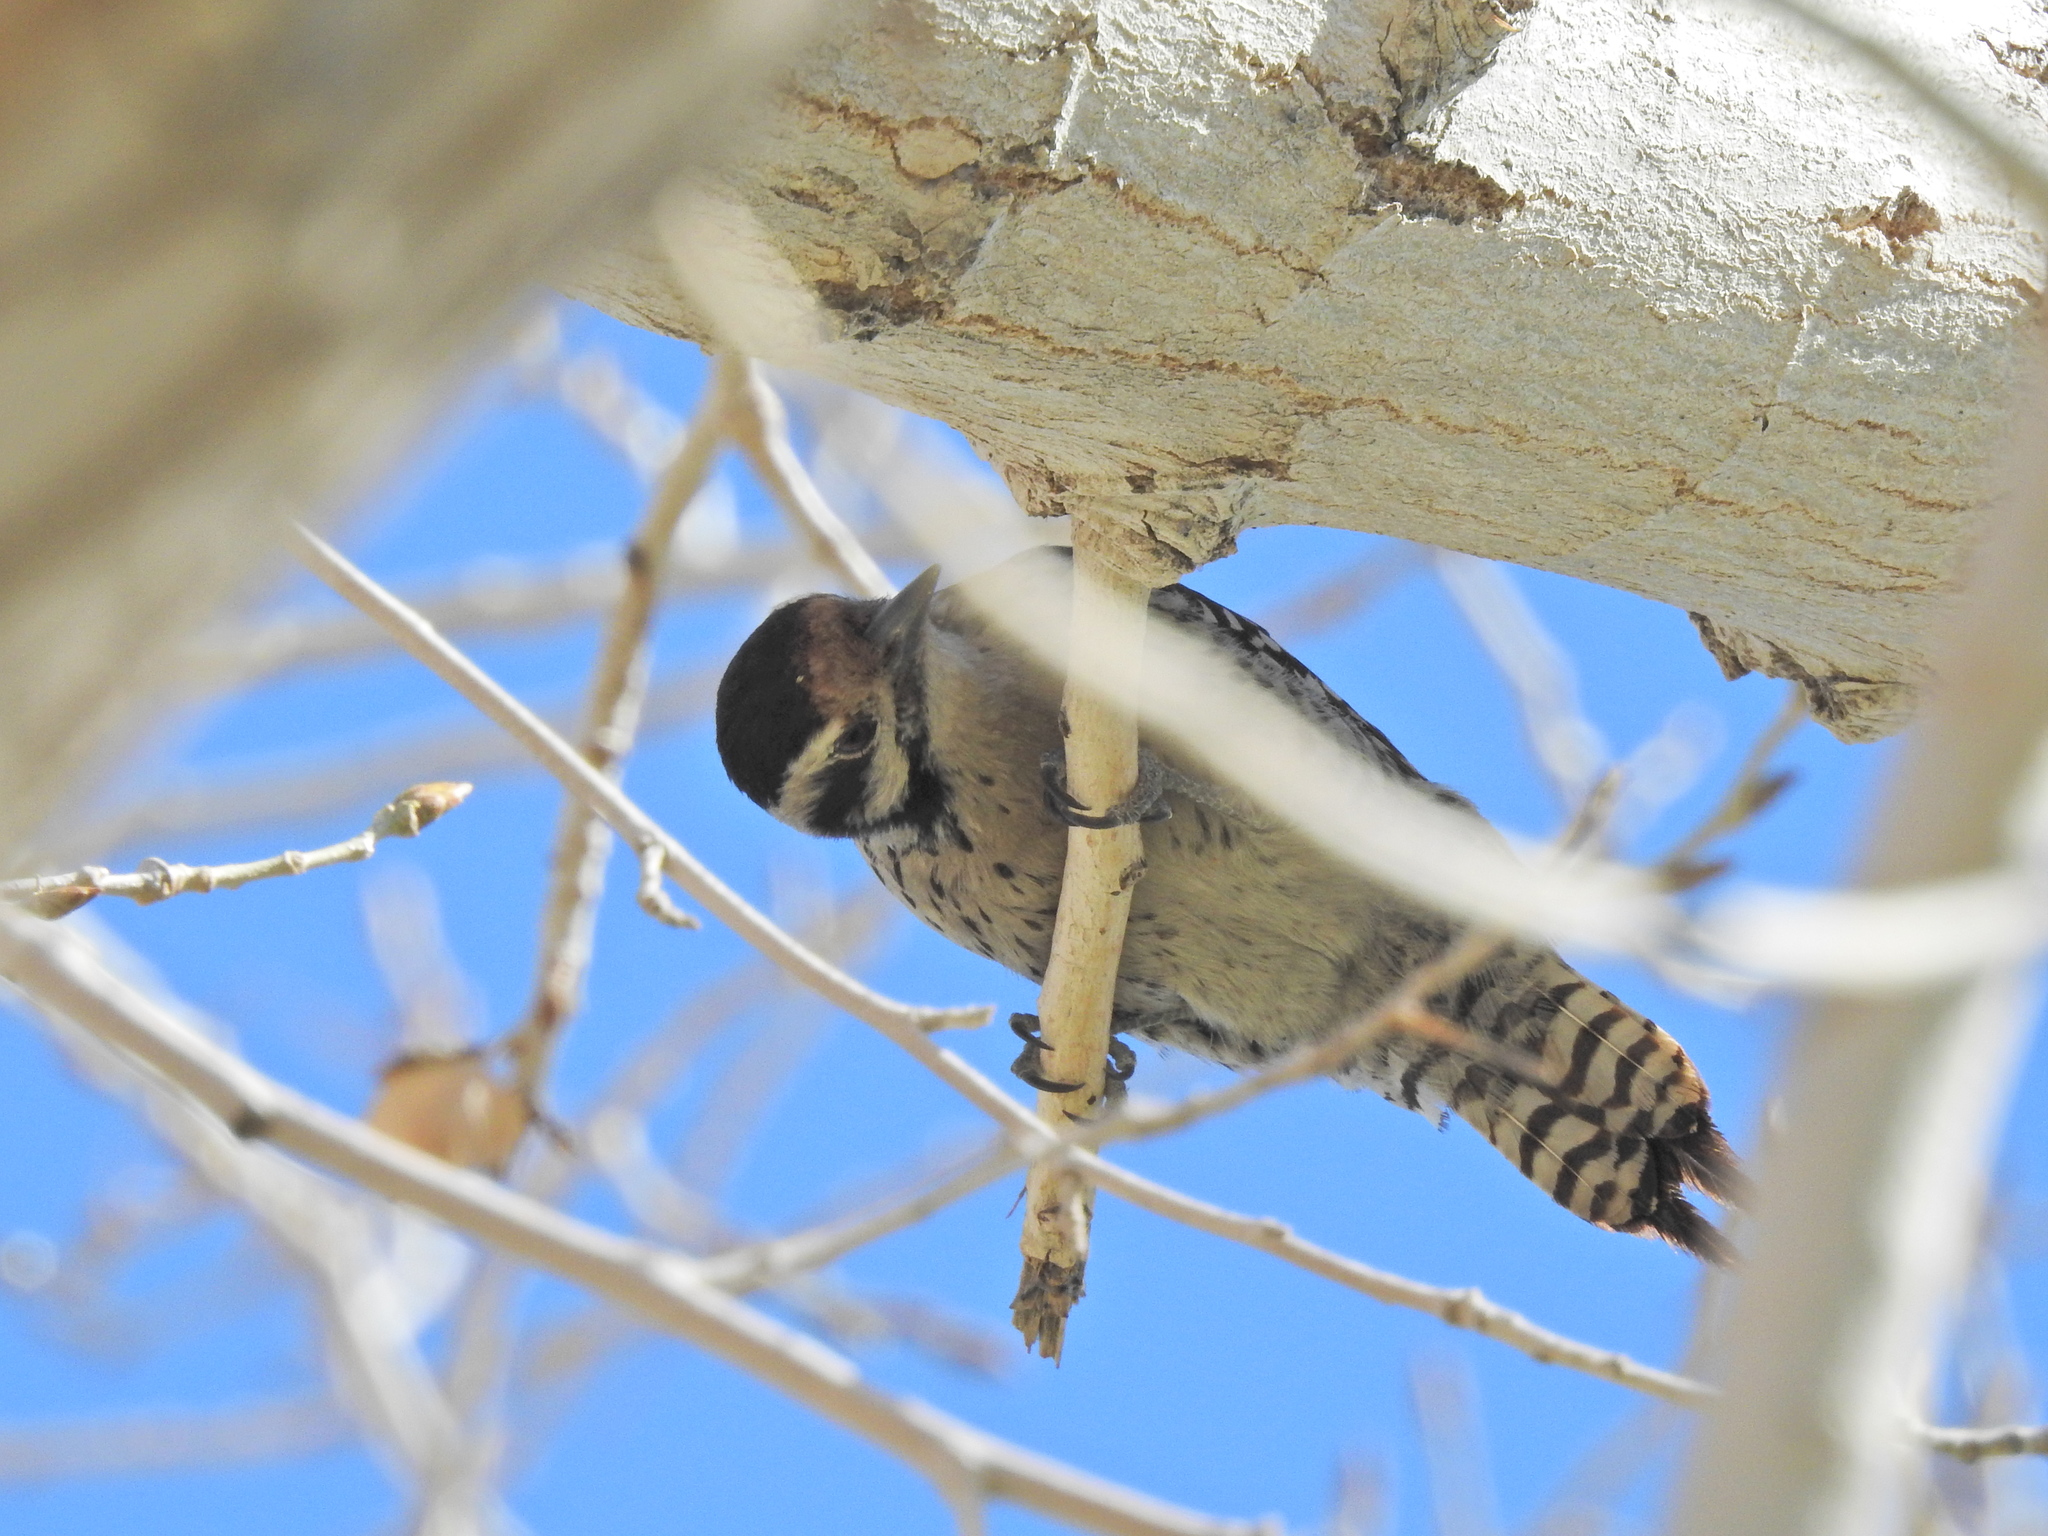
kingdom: Animalia
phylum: Chordata
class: Aves
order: Piciformes
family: Picidae
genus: Dryobates
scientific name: Dryobates scalaris
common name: Ladder-backed woodpecker
